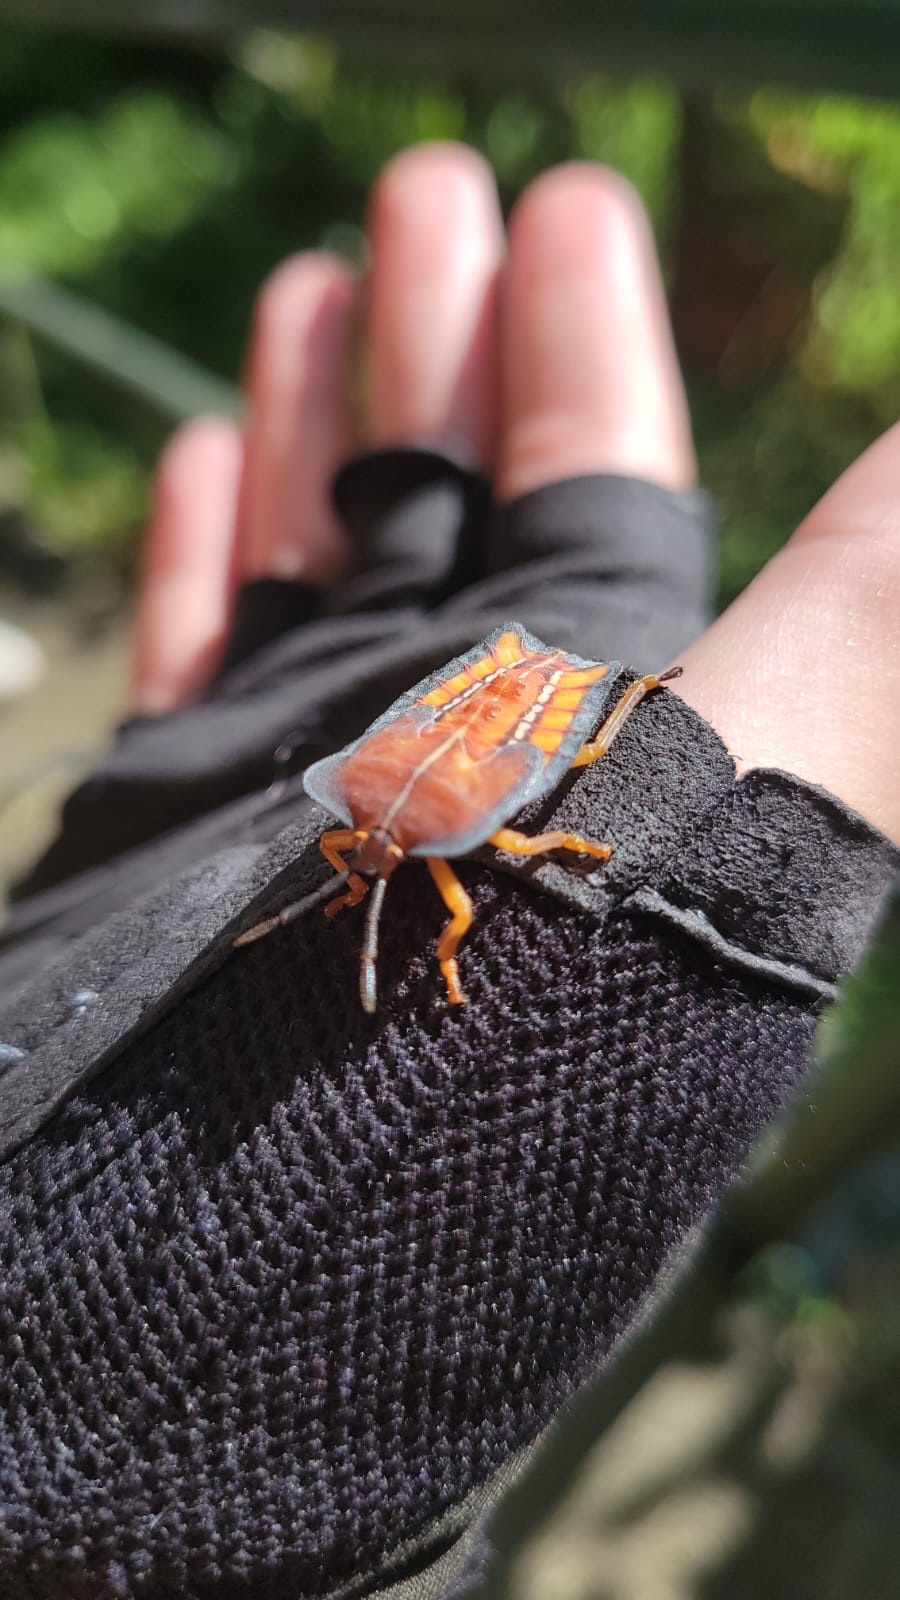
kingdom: Animalia
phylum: Arthropoda
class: Insecta
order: Hemiptera
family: Tessaratomidae
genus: Tessaratoma
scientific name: Tessaratoma papillosa
